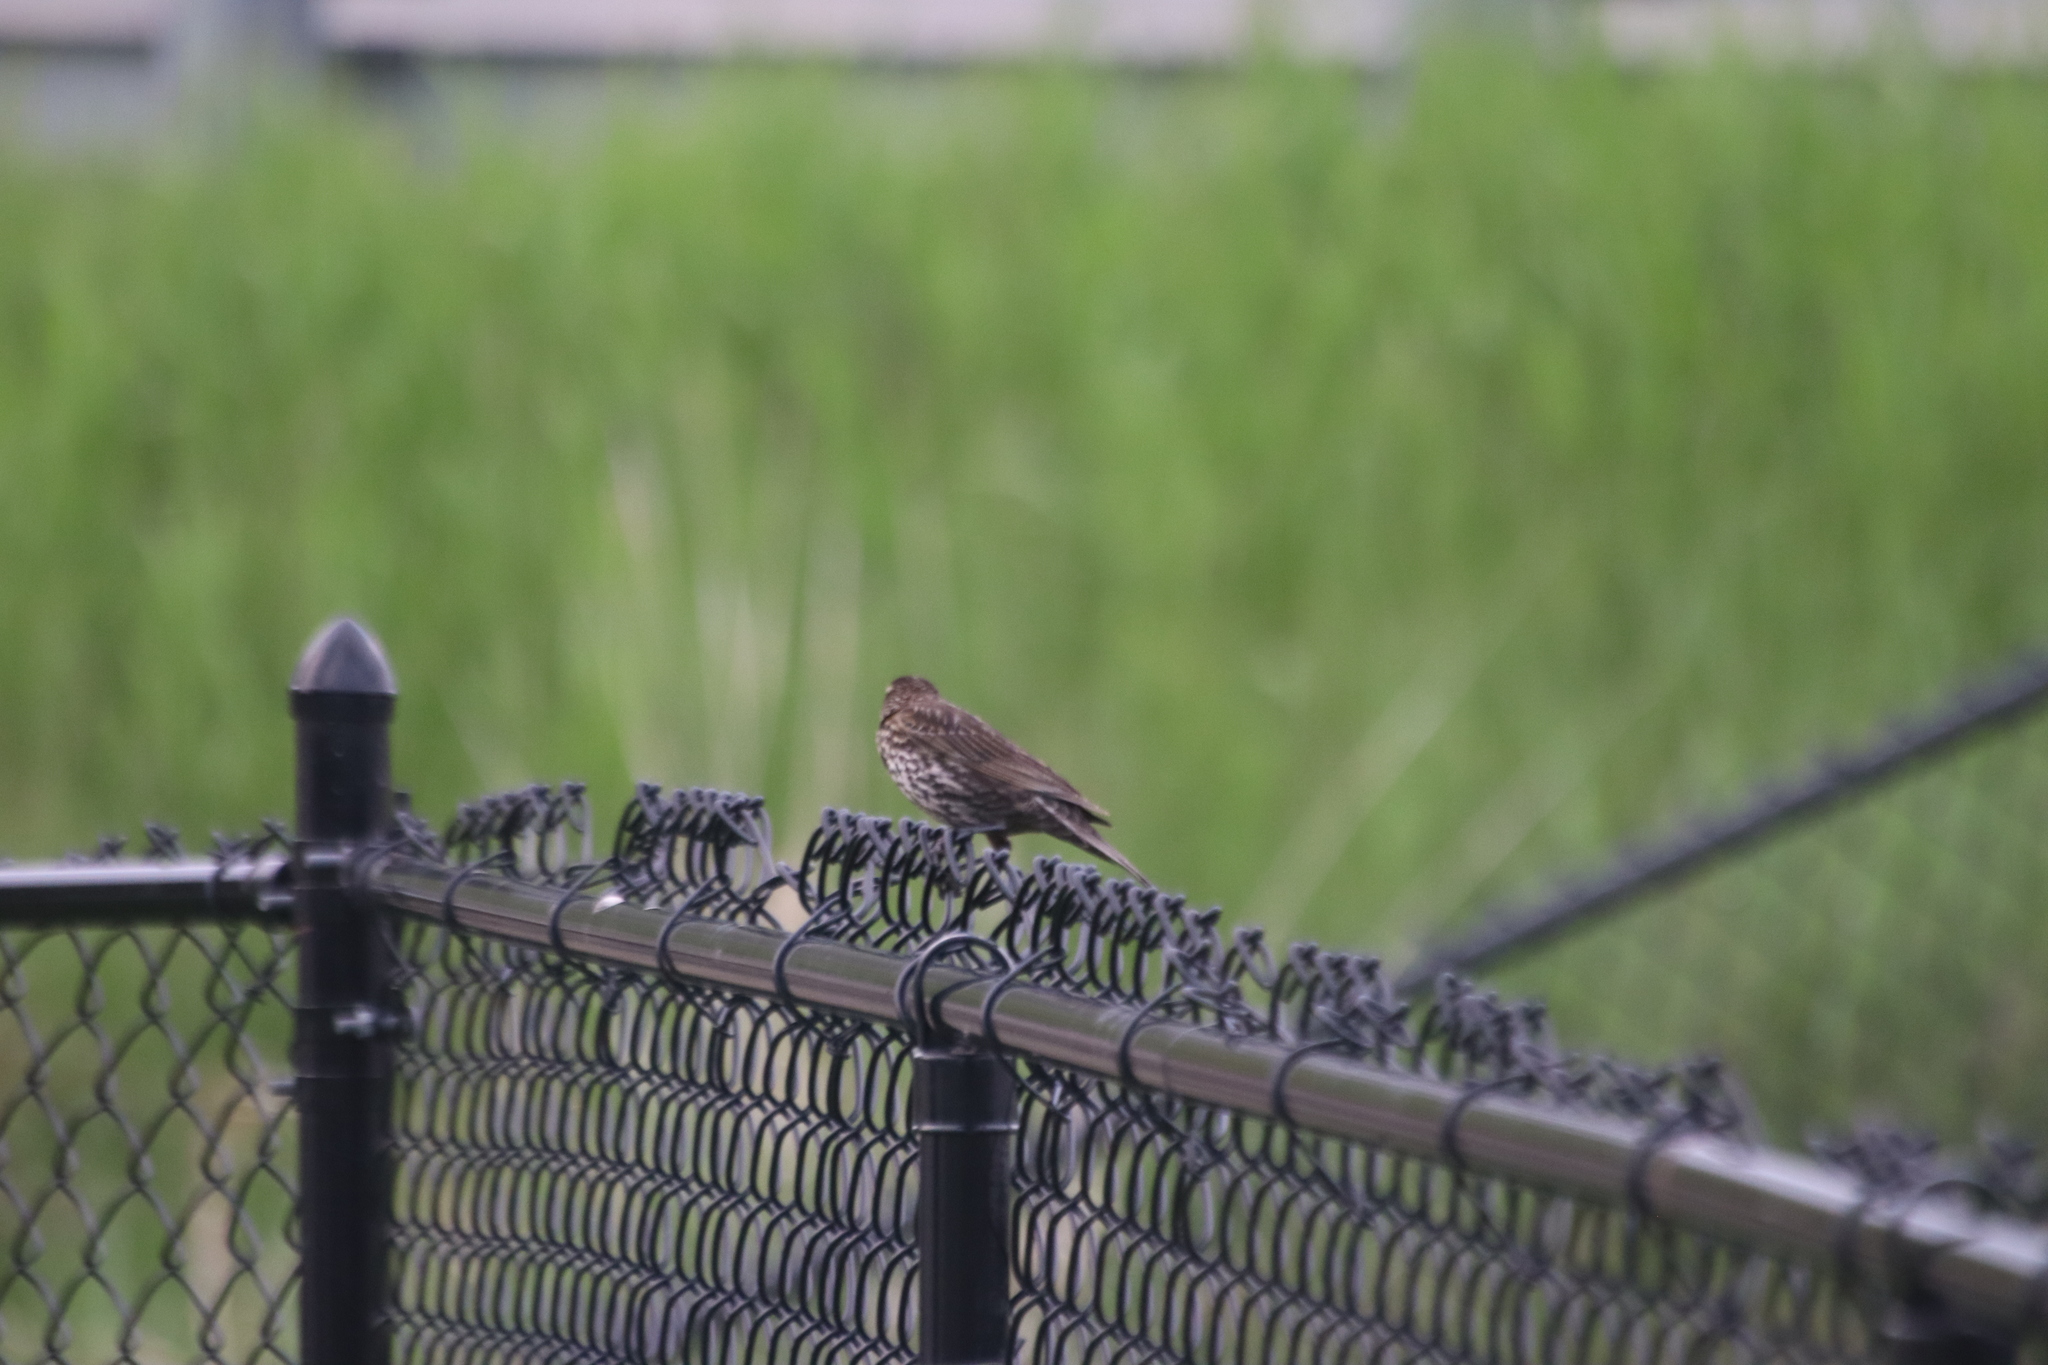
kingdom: Animalia
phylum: Chordata
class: Aves
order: Passeriformes
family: Icteridae
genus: Agelaius
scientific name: Agelaius phoeniceus
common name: Red-winged blackbird
